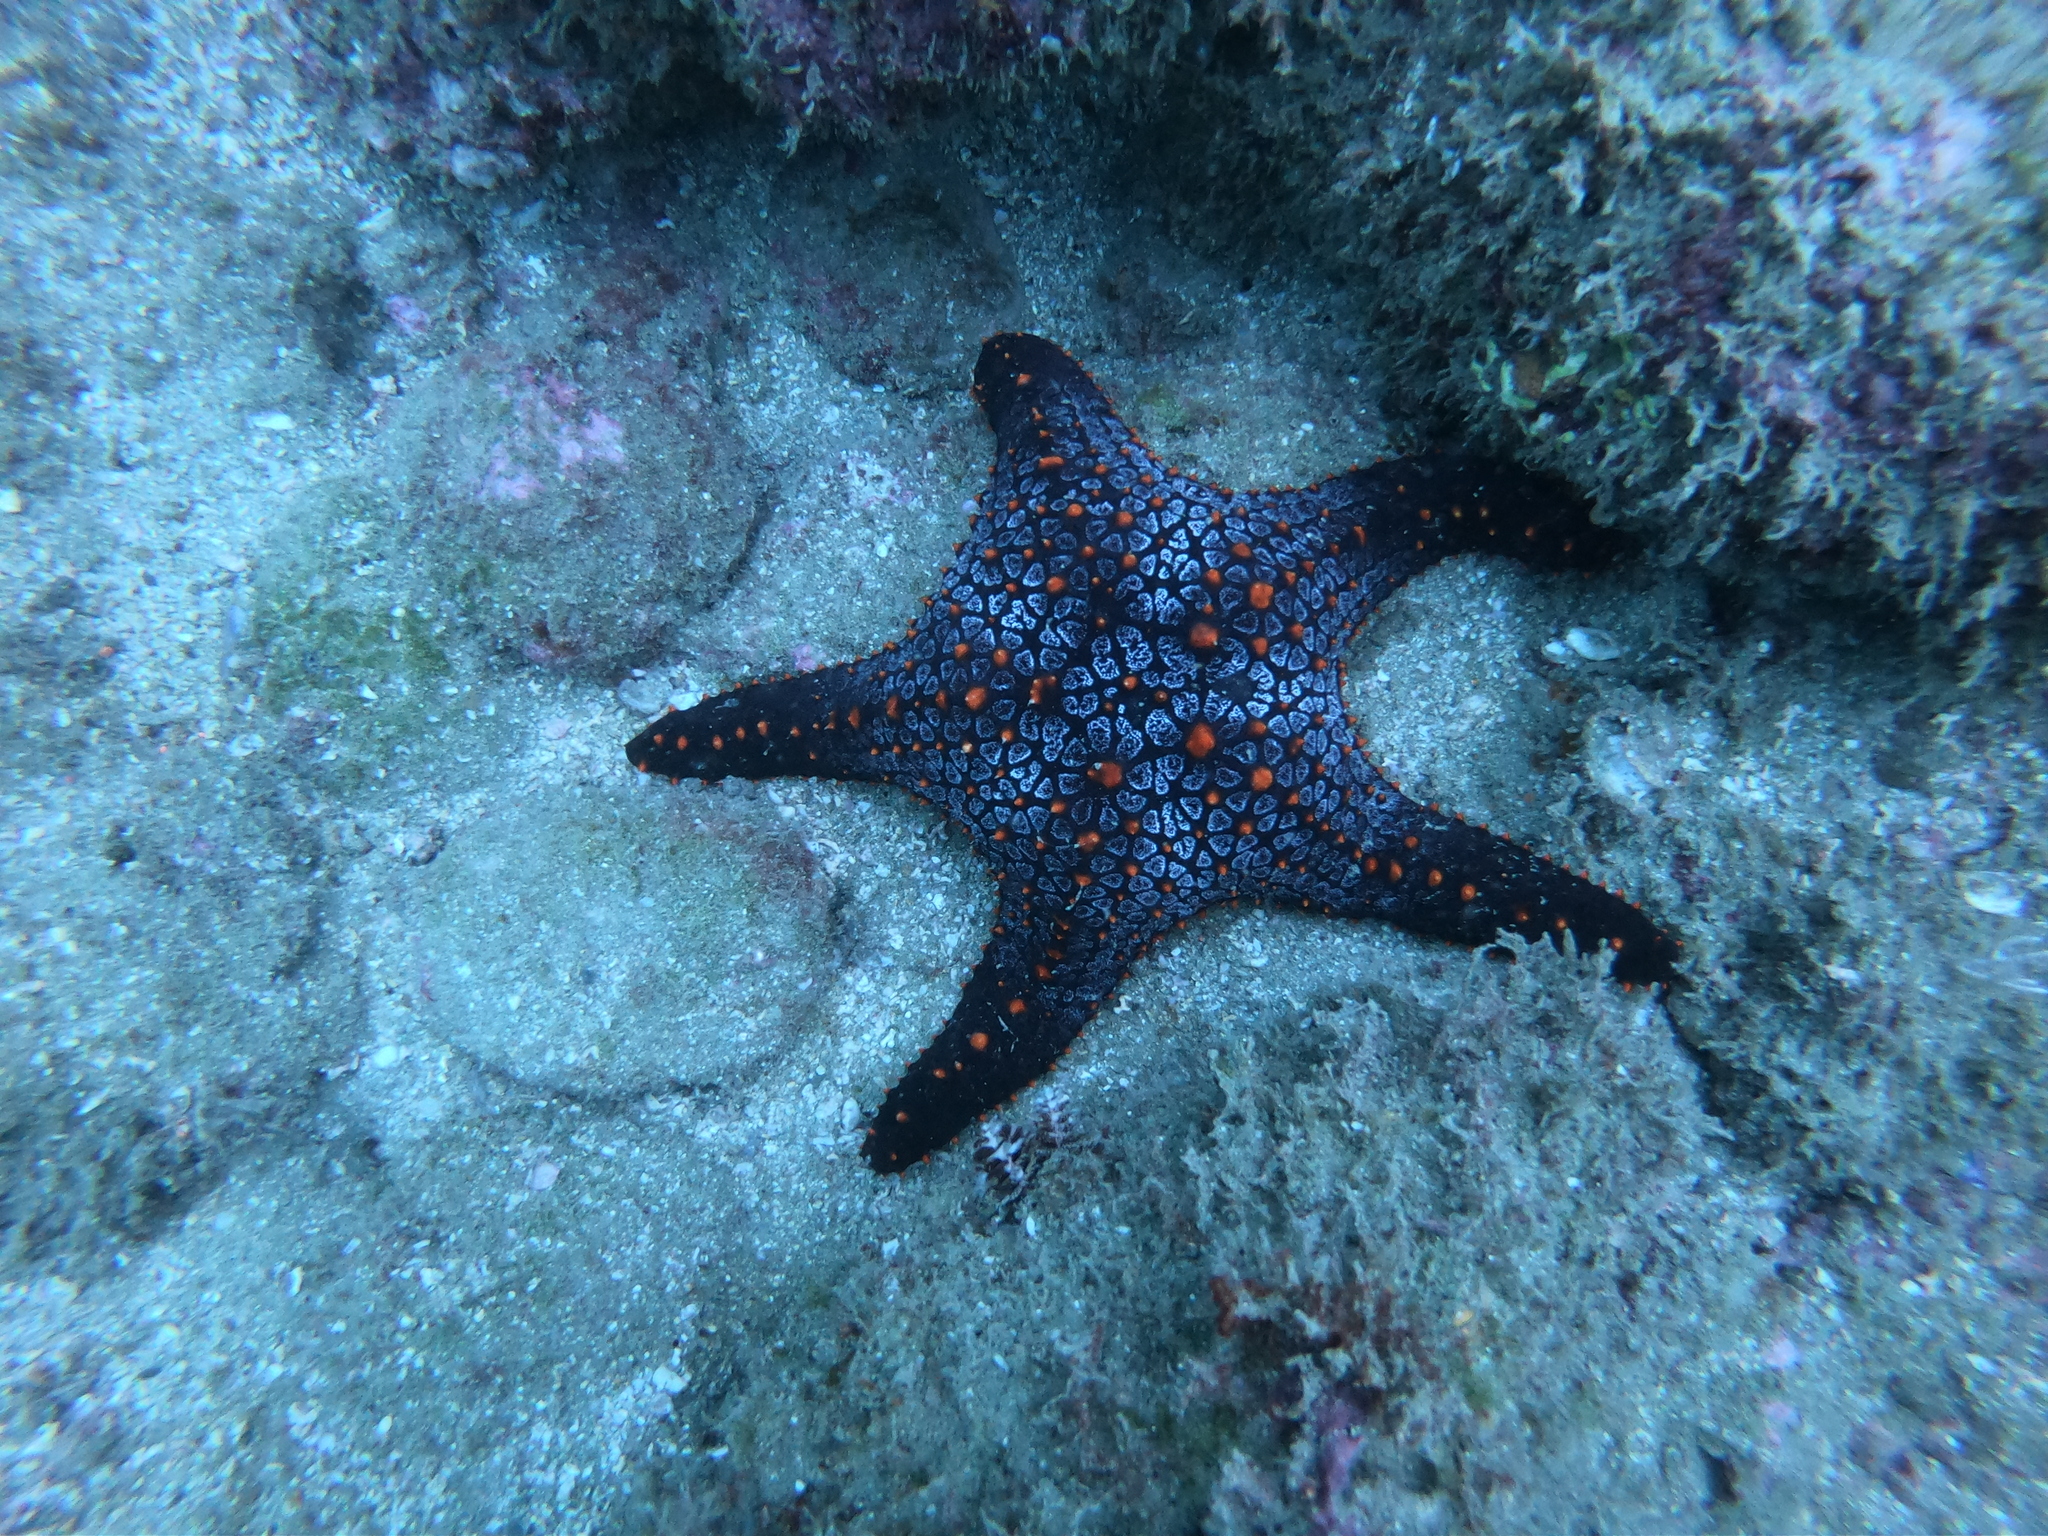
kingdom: Animalia
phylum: Echinodermata
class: Asteroidea
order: Valvatida
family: Oreasteridae
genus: Pentaceraster
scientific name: Pentaceraster cumingi
